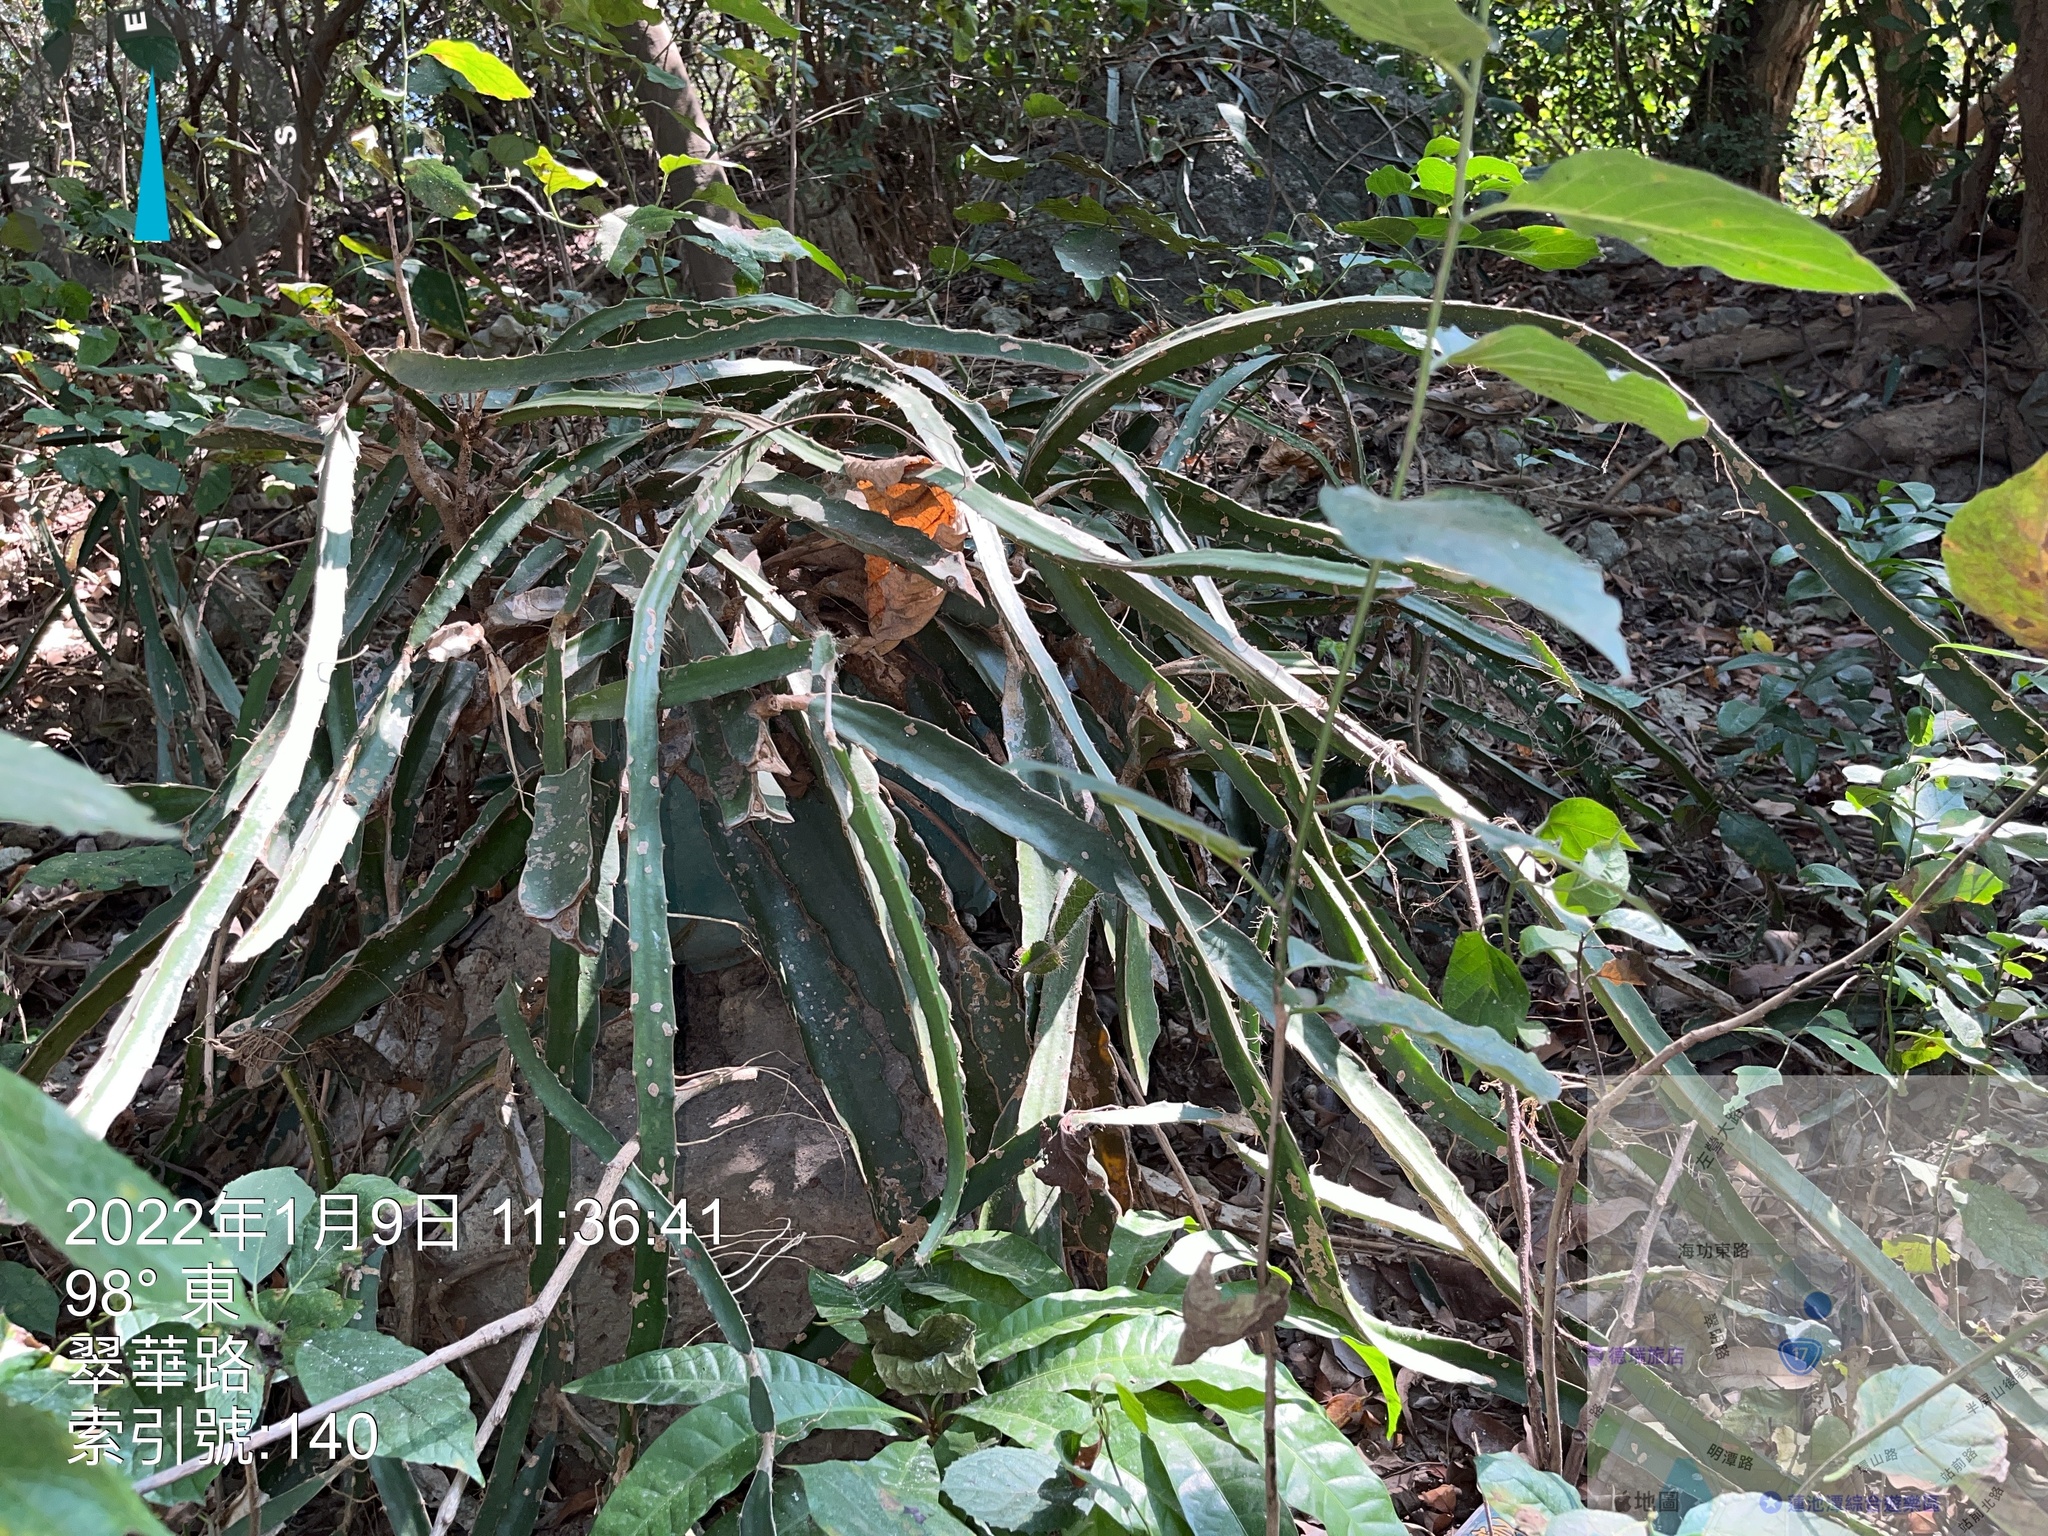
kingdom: Plantae
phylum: Tracheophyta
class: Magnoliopsida
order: Caryophyllales
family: Cactaceae
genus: Selenicereus
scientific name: Selenicereus undatus
